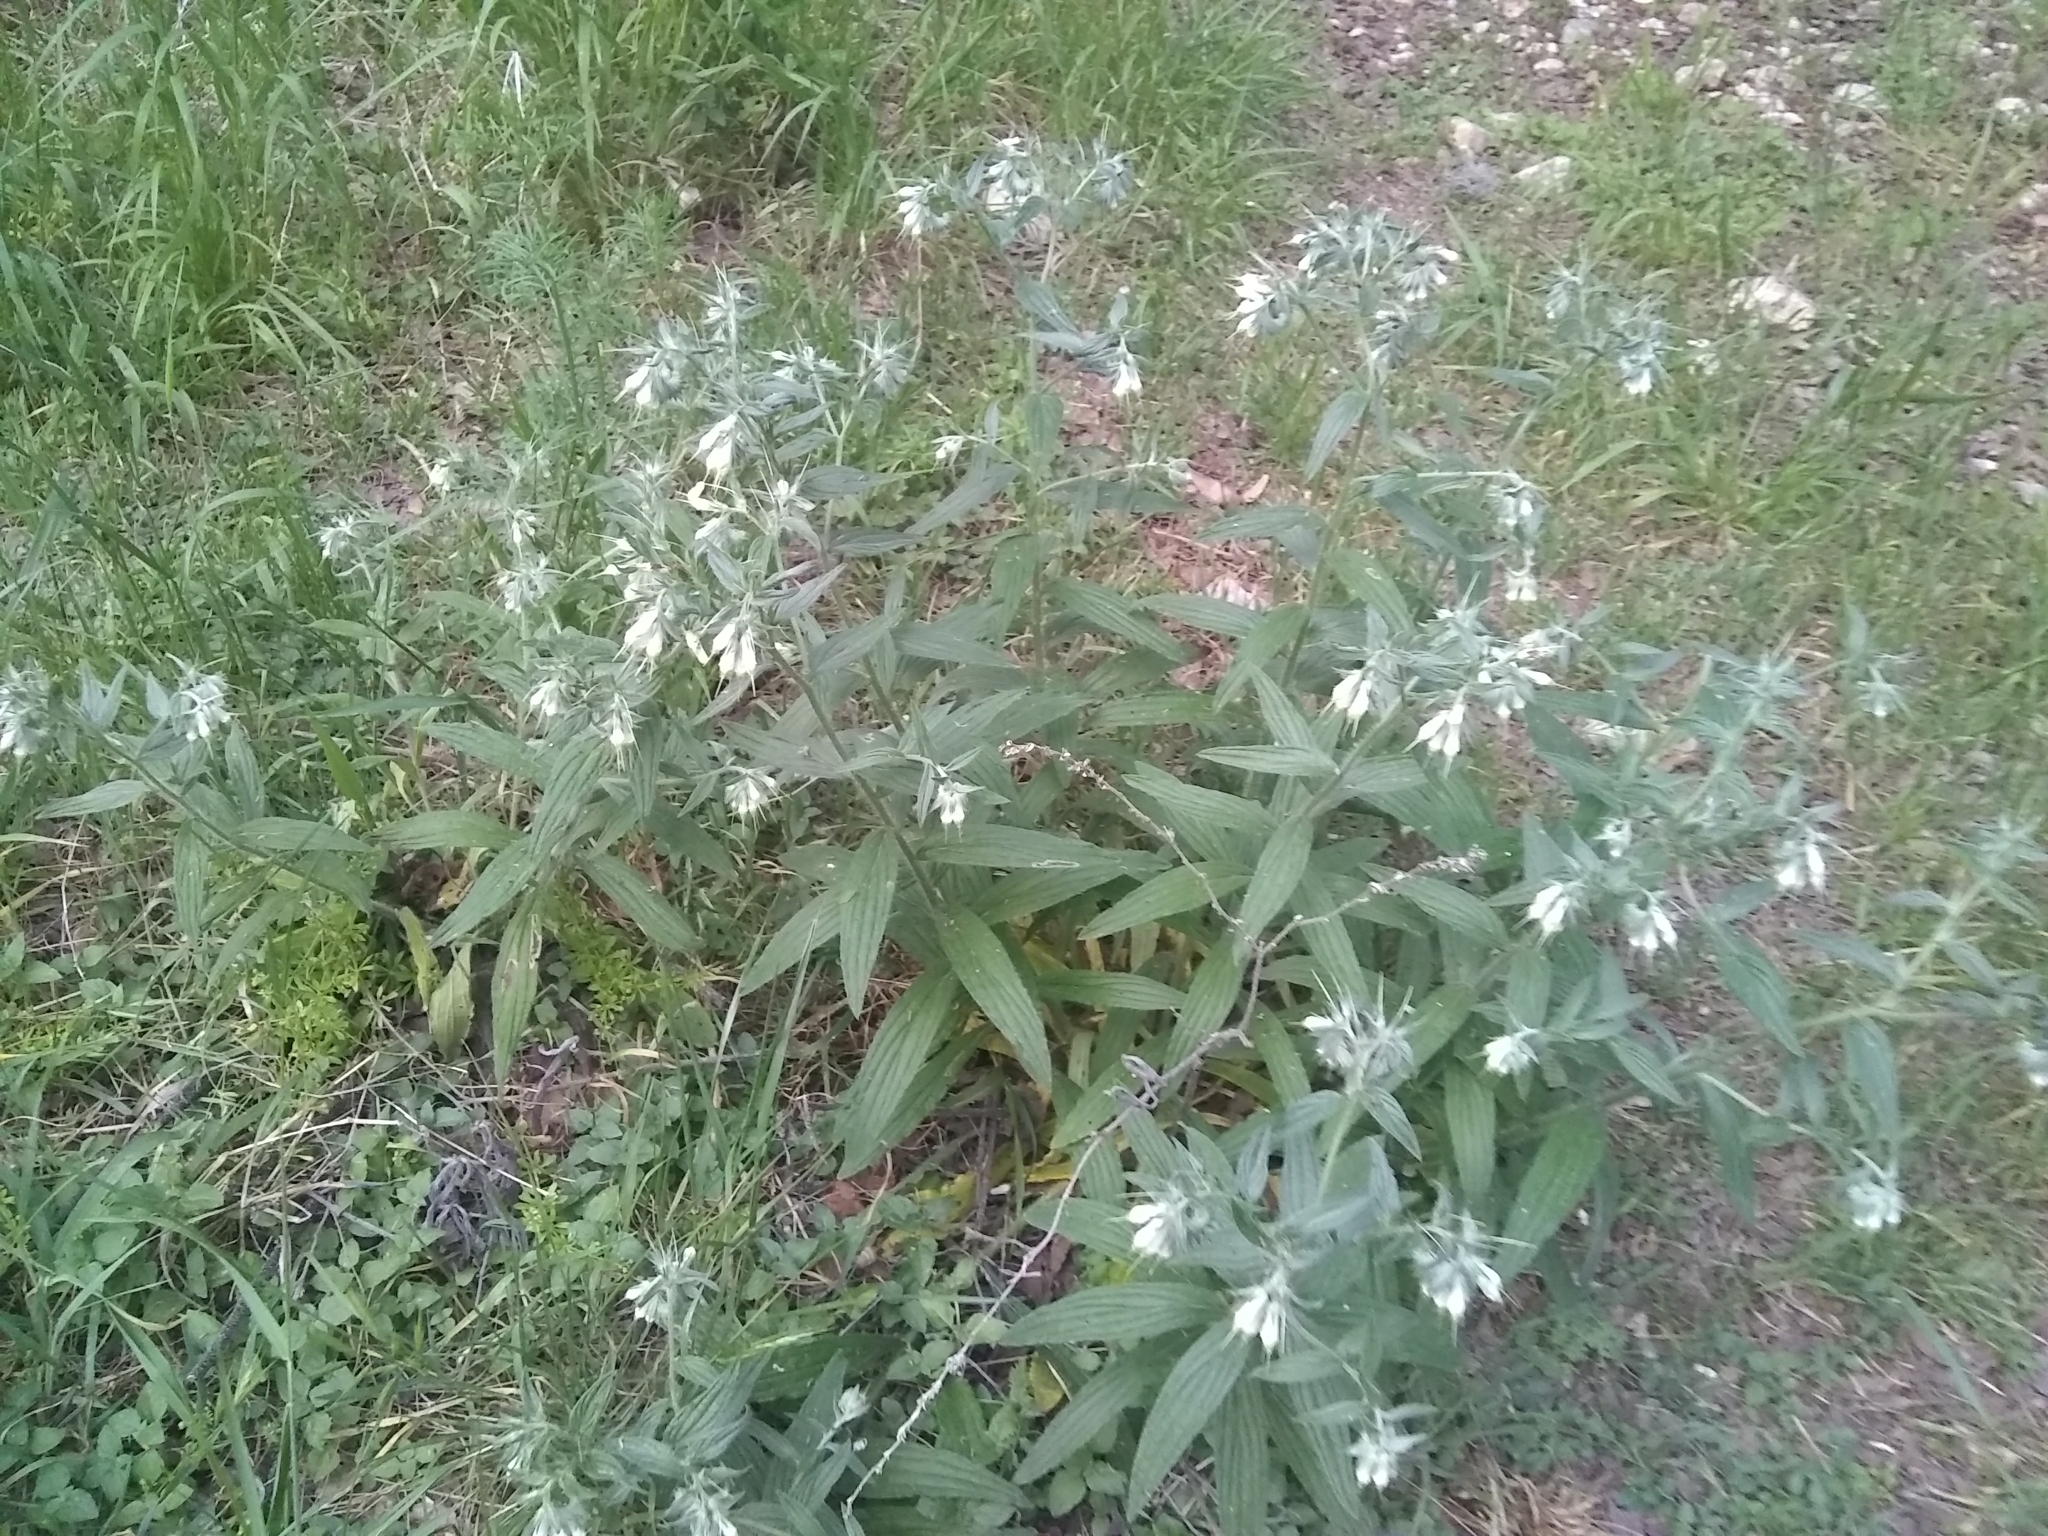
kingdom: Plantae
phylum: Tracheophyta
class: Magnoliopsida
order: Boraginales
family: Boraginaceae
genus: Lithospermum
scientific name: Lithospermum caroliniense
